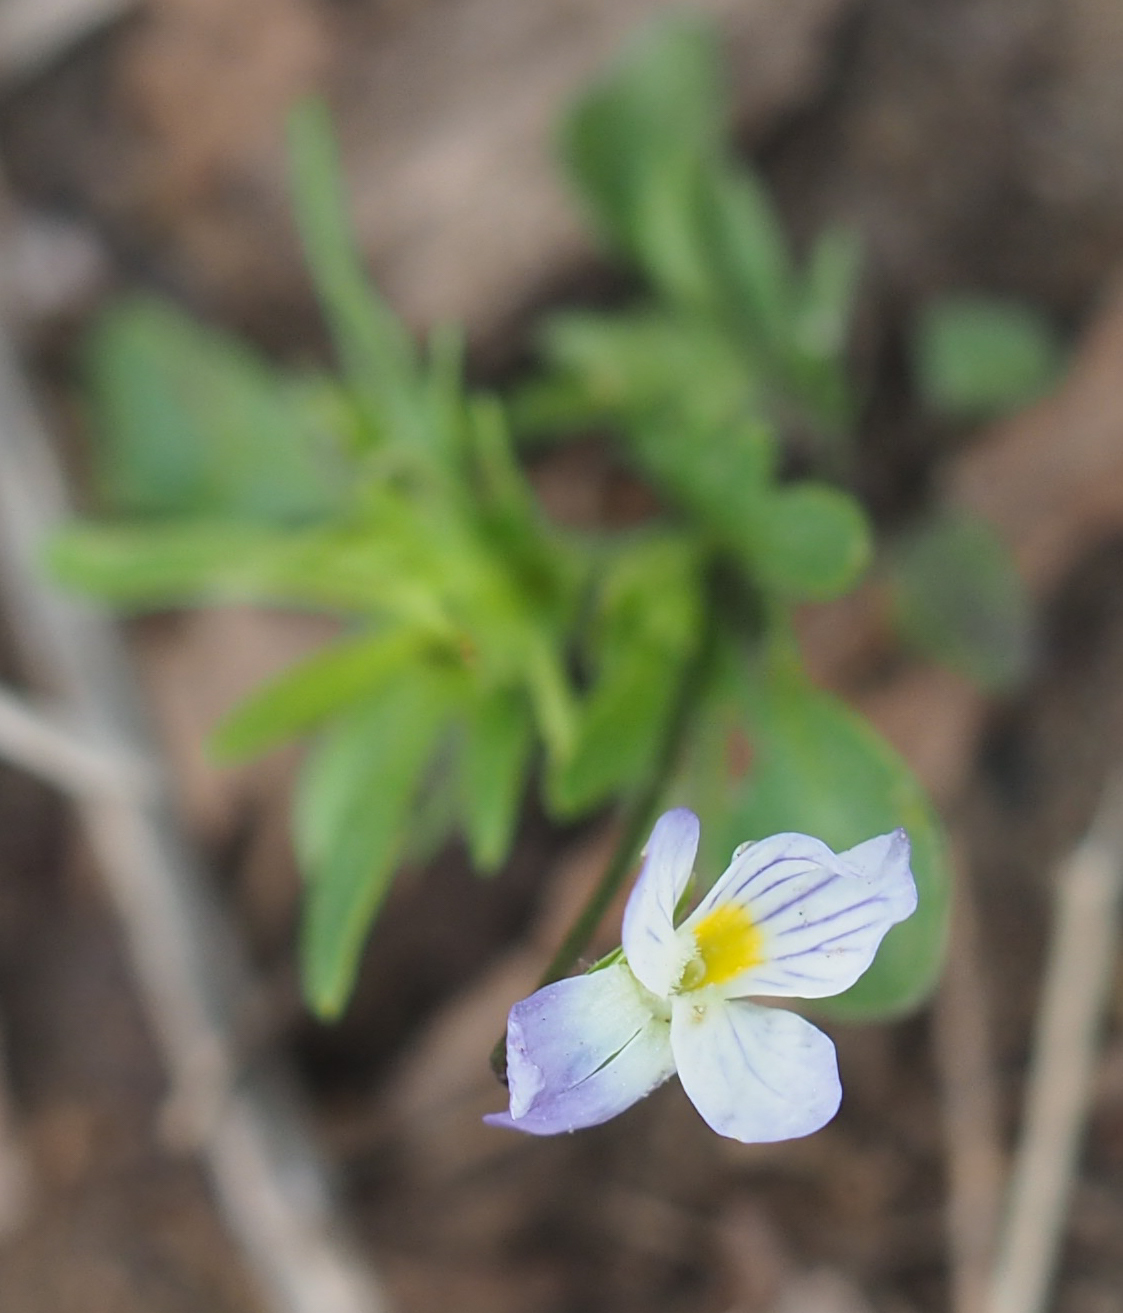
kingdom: Plantae
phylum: Tracheophyta
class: Magnoliopsida
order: Malpighiales
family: Violaceae
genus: Viola
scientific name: Viola rafinesquei
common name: American field pansy
